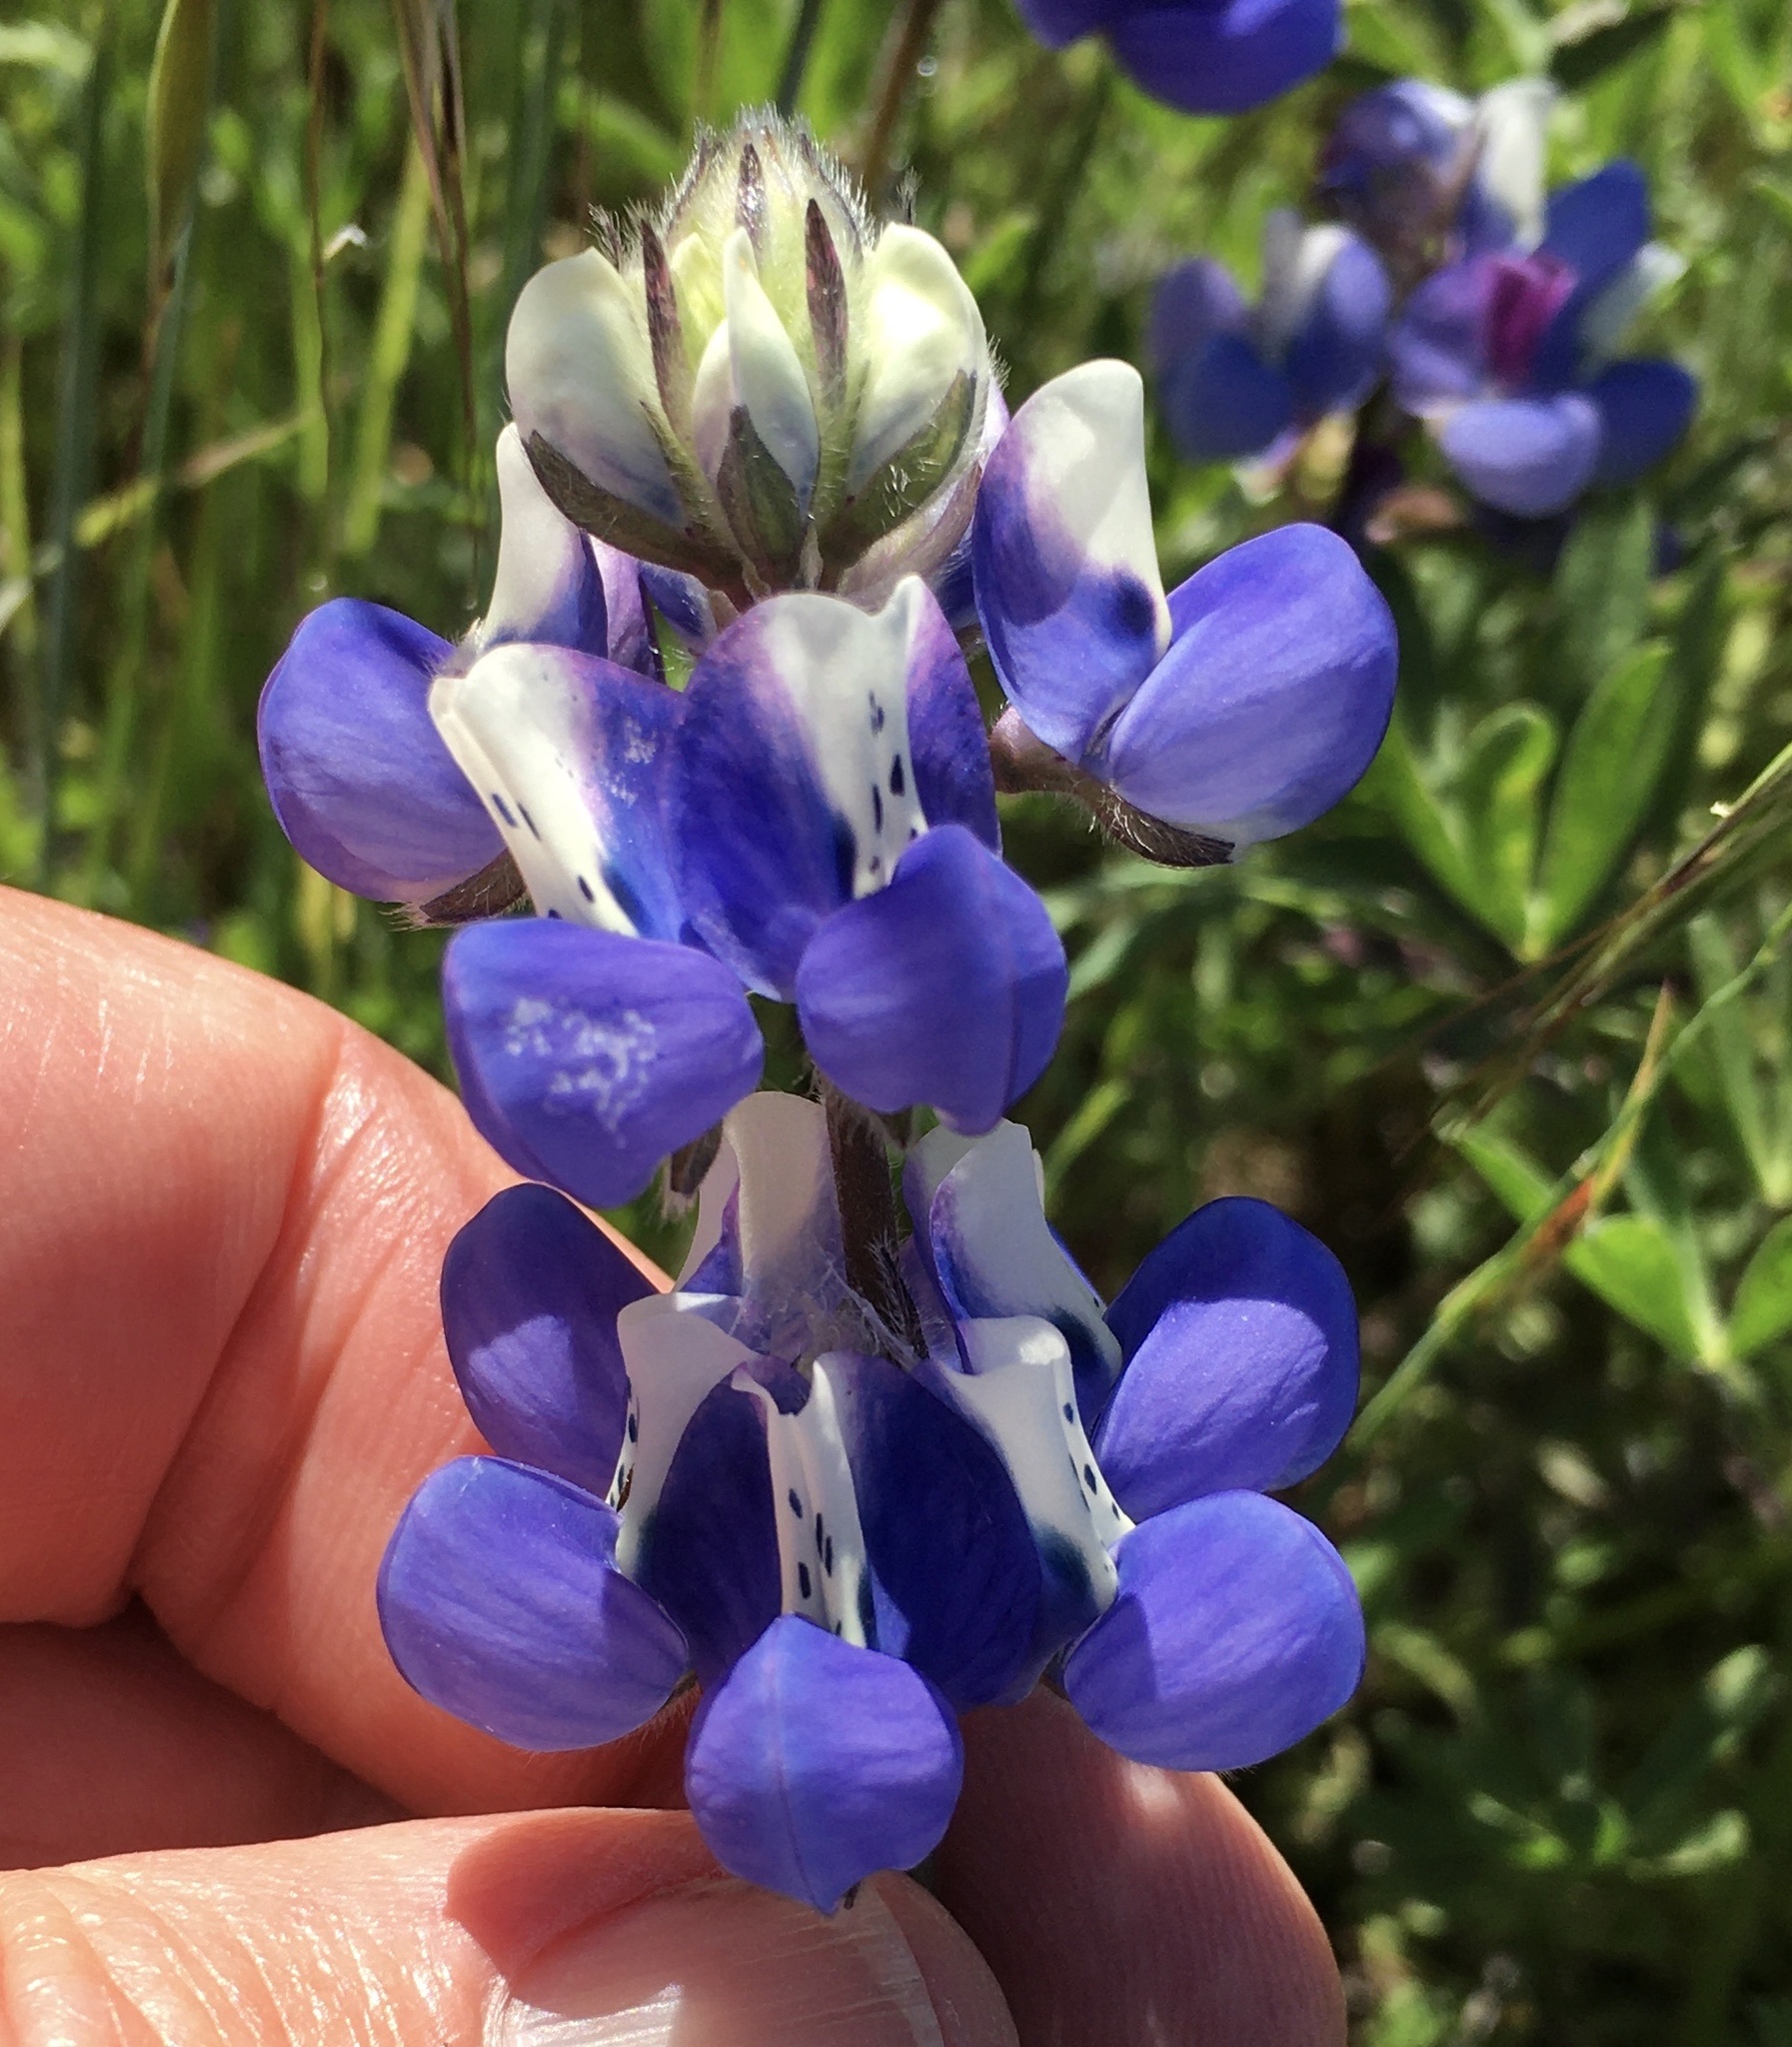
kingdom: Plantae
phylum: Tracheophyta
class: Magnoliopsida
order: Fabales
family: Fabaceae
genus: Lupinus
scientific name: Lupinus nanus
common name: Orean blue lupin
